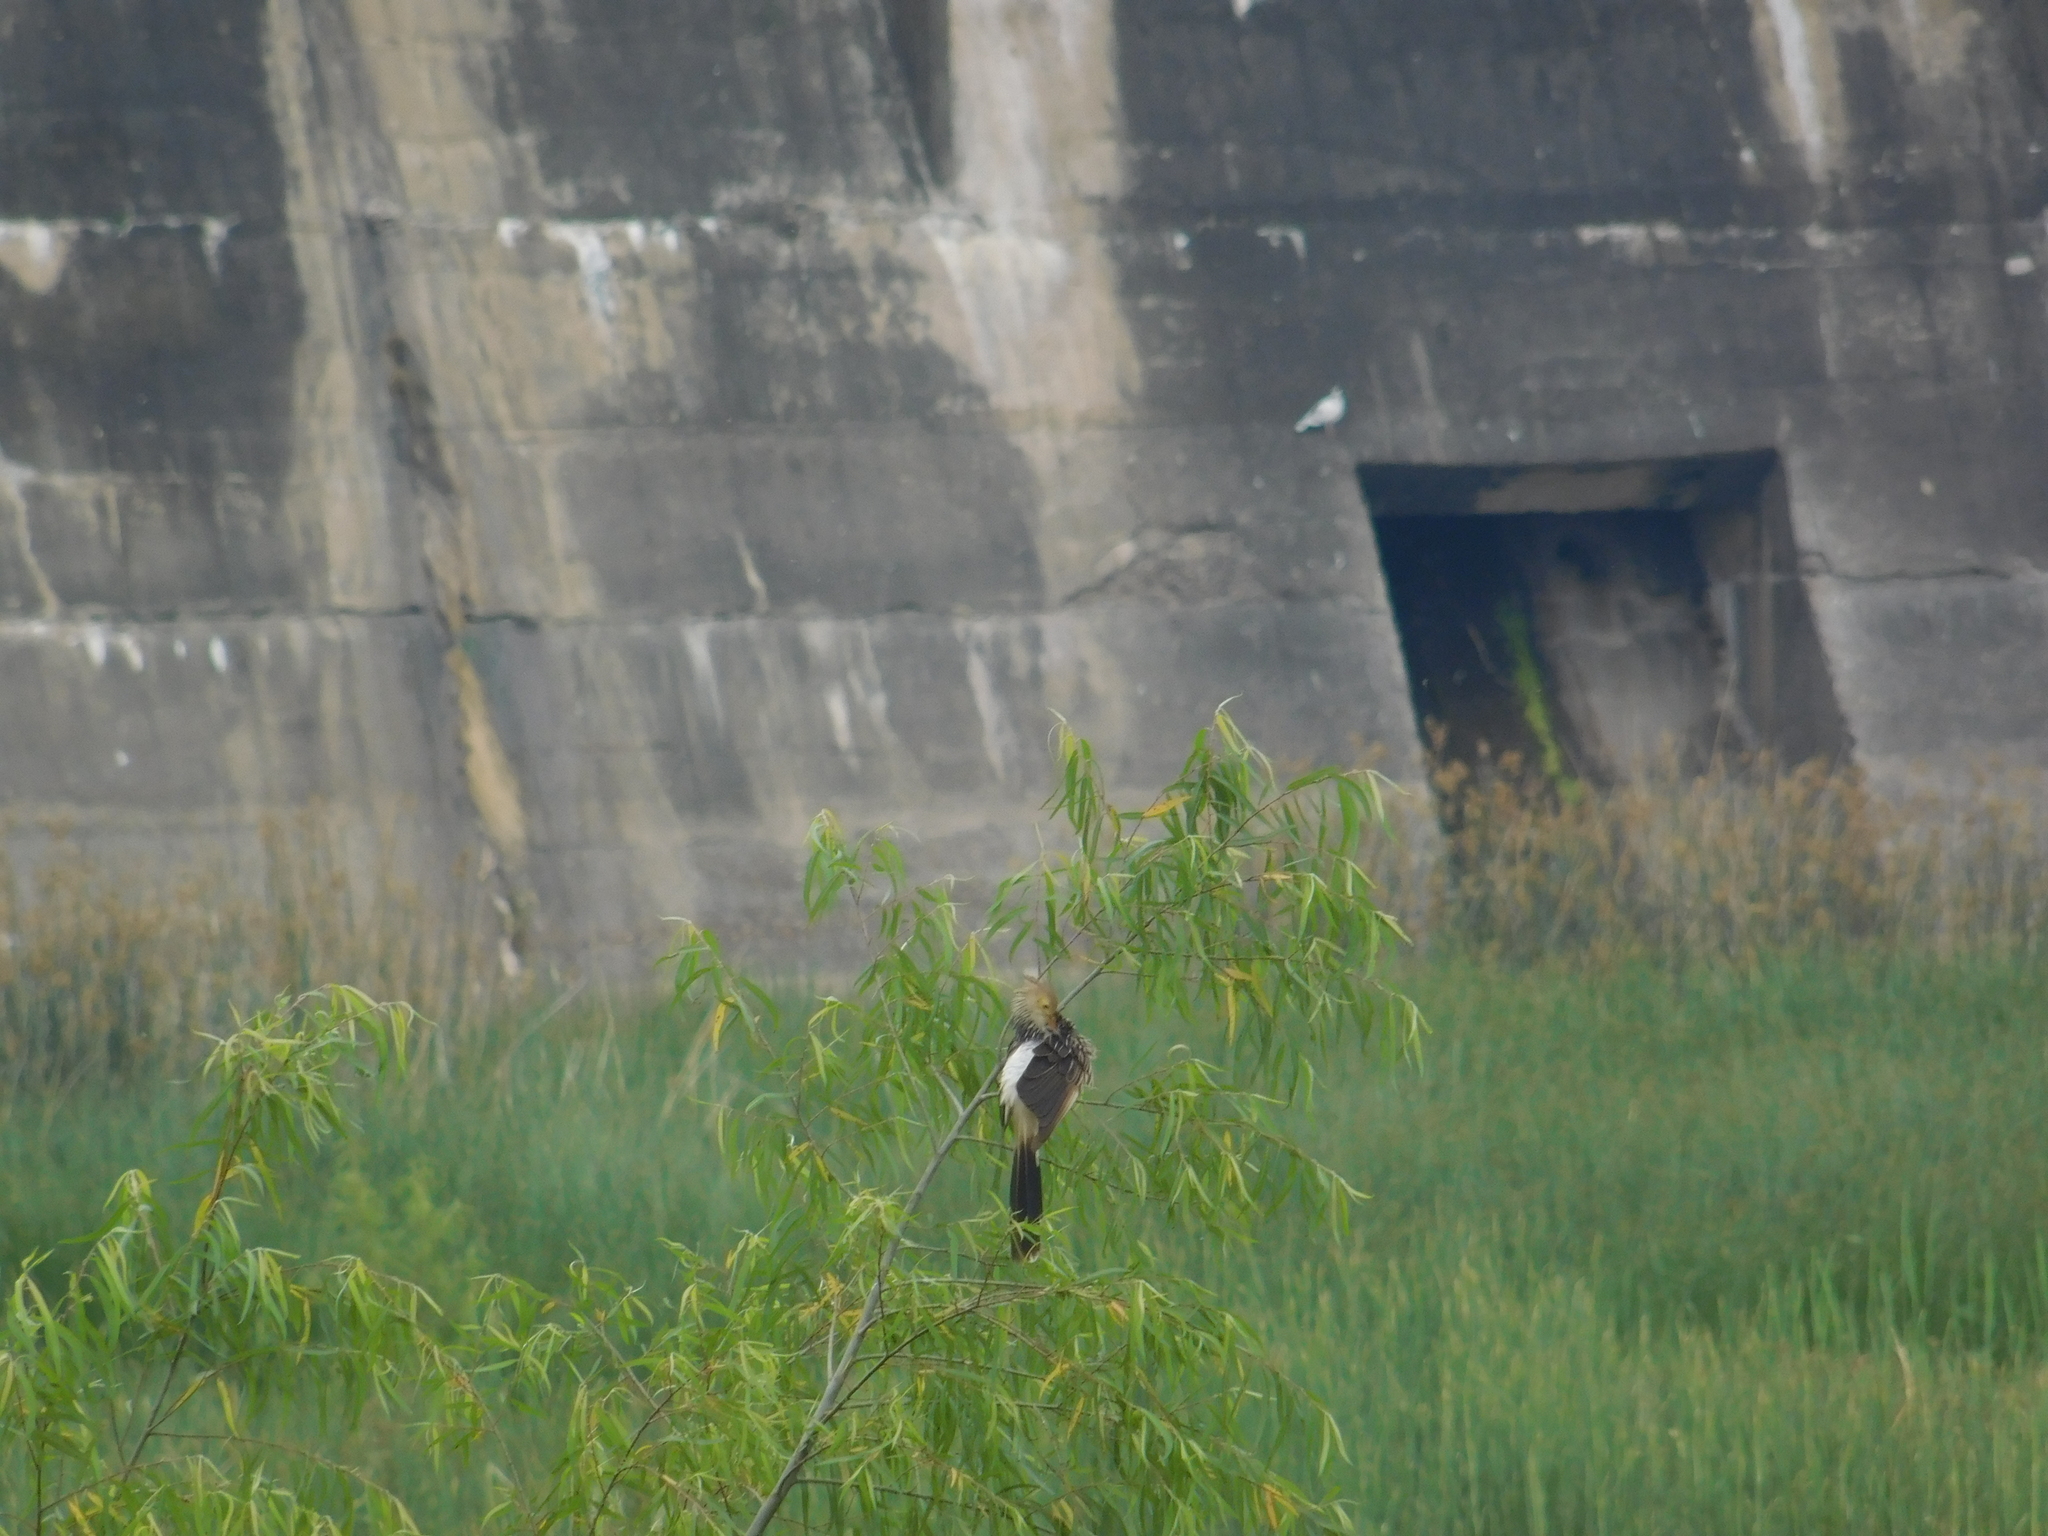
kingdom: Animalia
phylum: Chordata
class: Aves
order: Cuculiformes
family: Cuculidae
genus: Guira
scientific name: Guira guira
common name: Guira cuckoo
